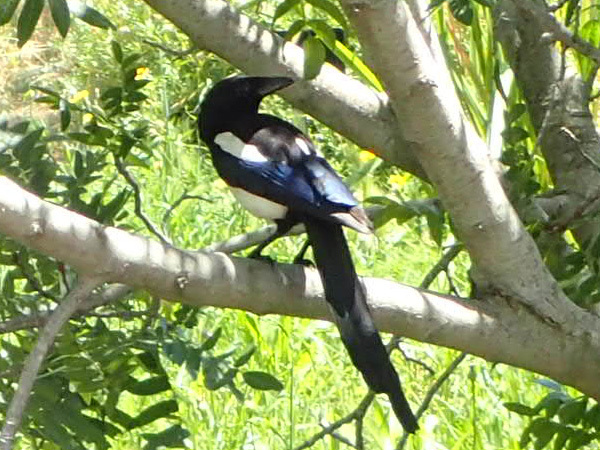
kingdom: Animalia
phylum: Chordata
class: Aves
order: Passeriformes
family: Corvidae
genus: Pica
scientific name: Pica pica
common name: Eurasian magpie
